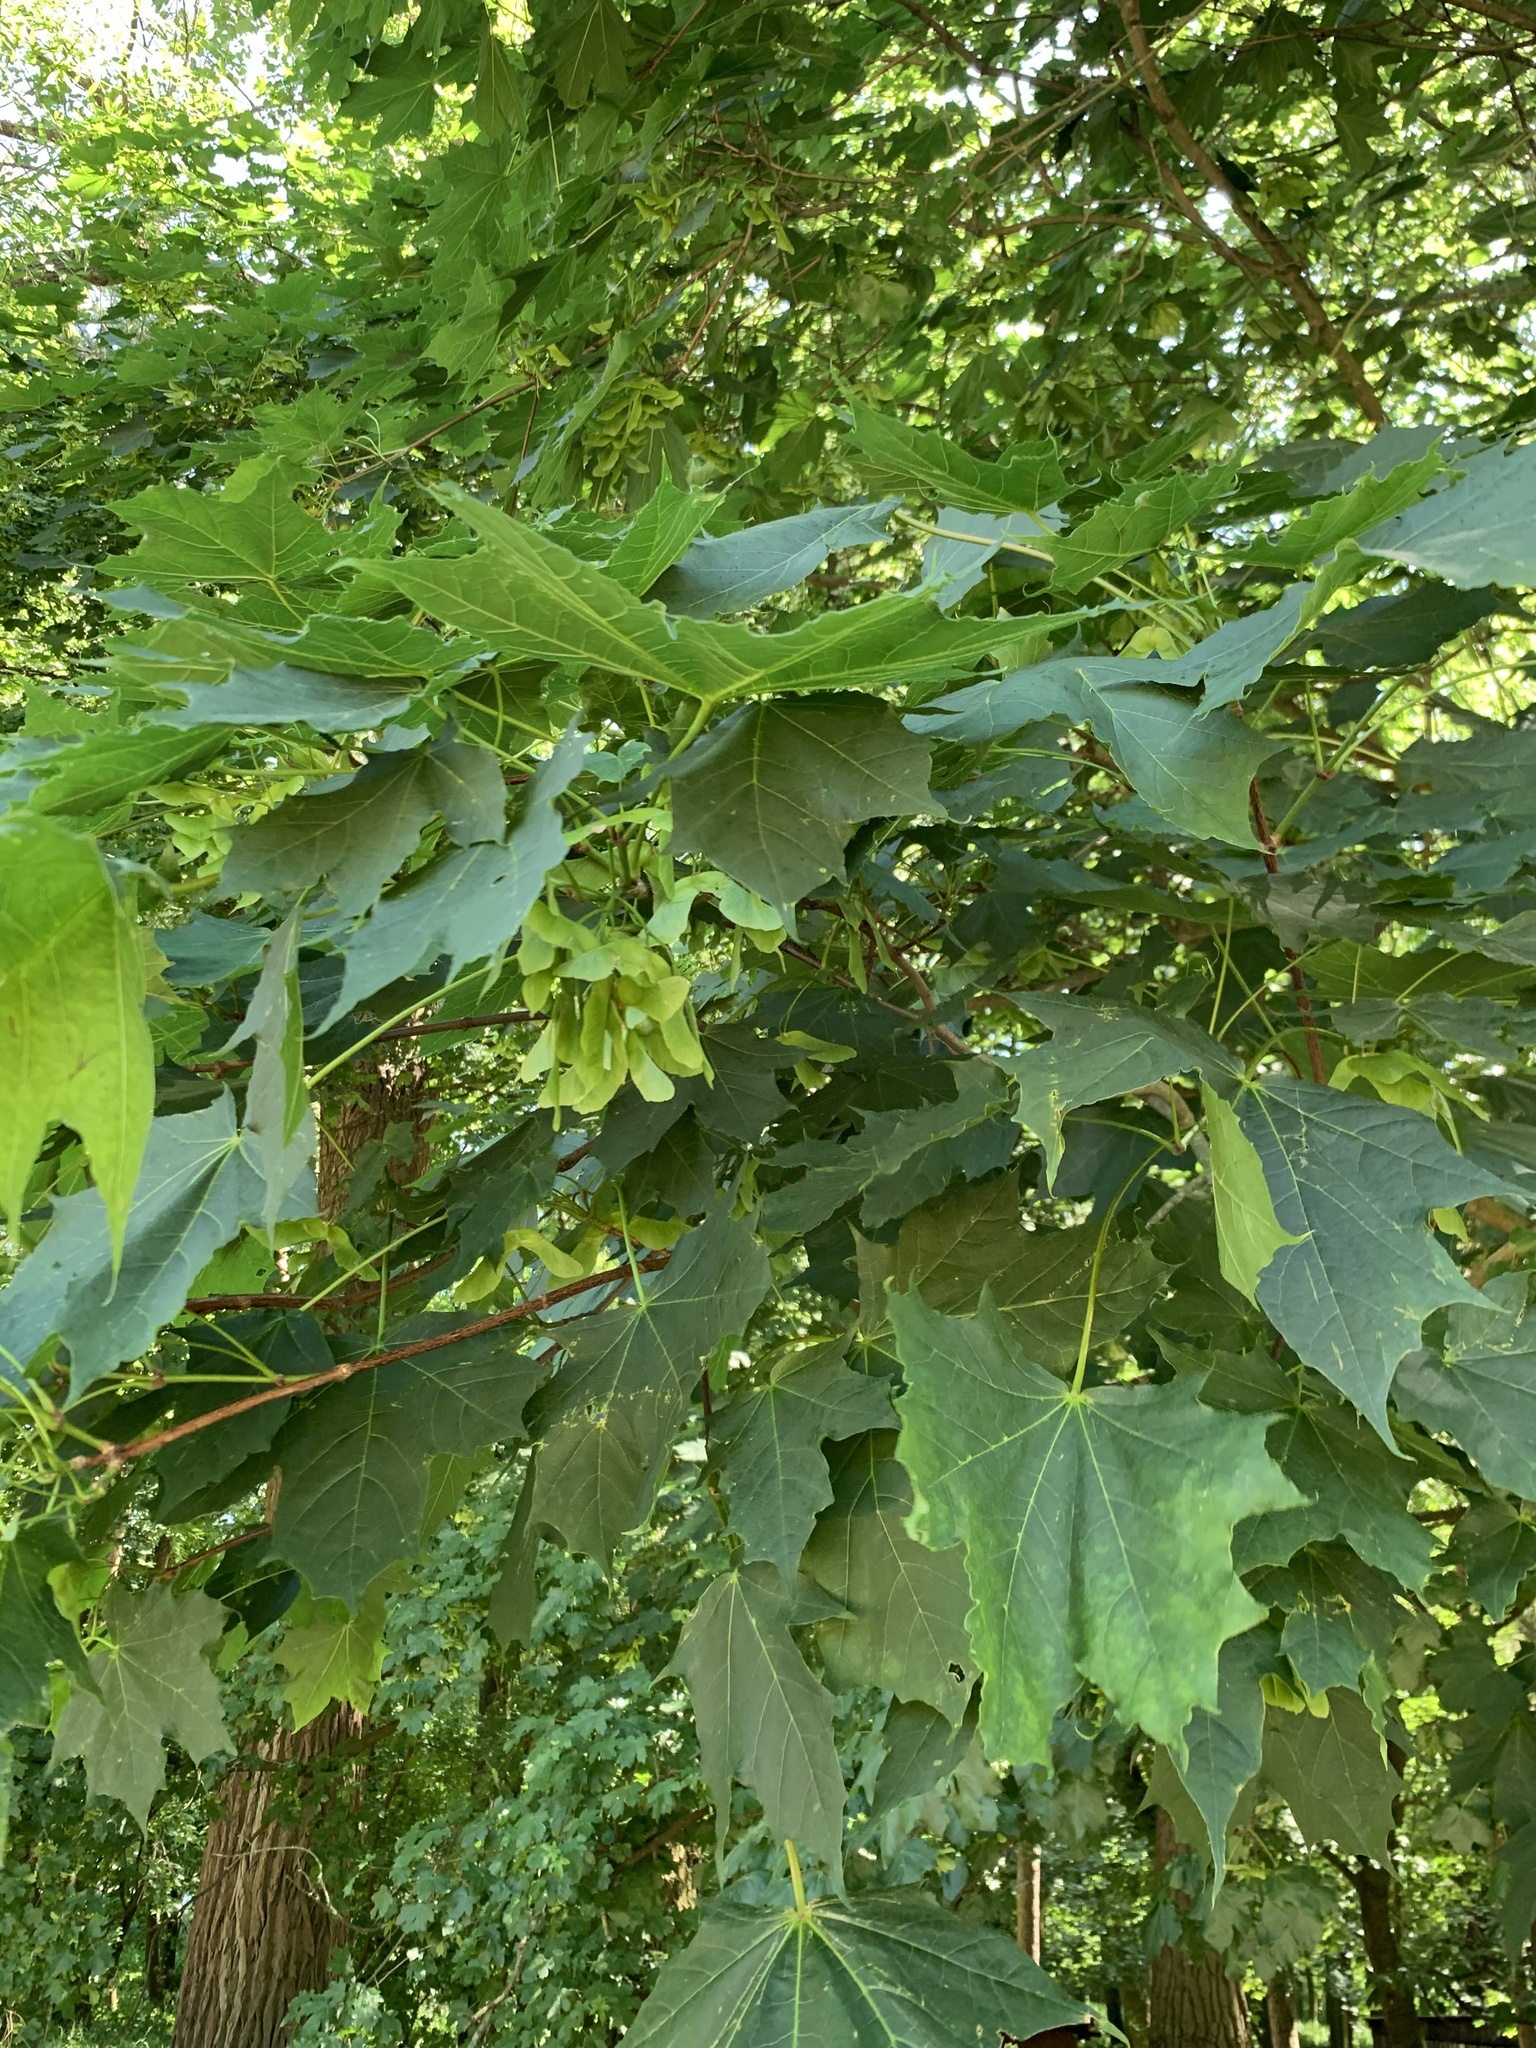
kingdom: Plantae
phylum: Tracheophyta
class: Magnoliopsida
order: Sapindales
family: Sapindaceae
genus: Acer
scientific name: Acer platanoides
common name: Norway maple
